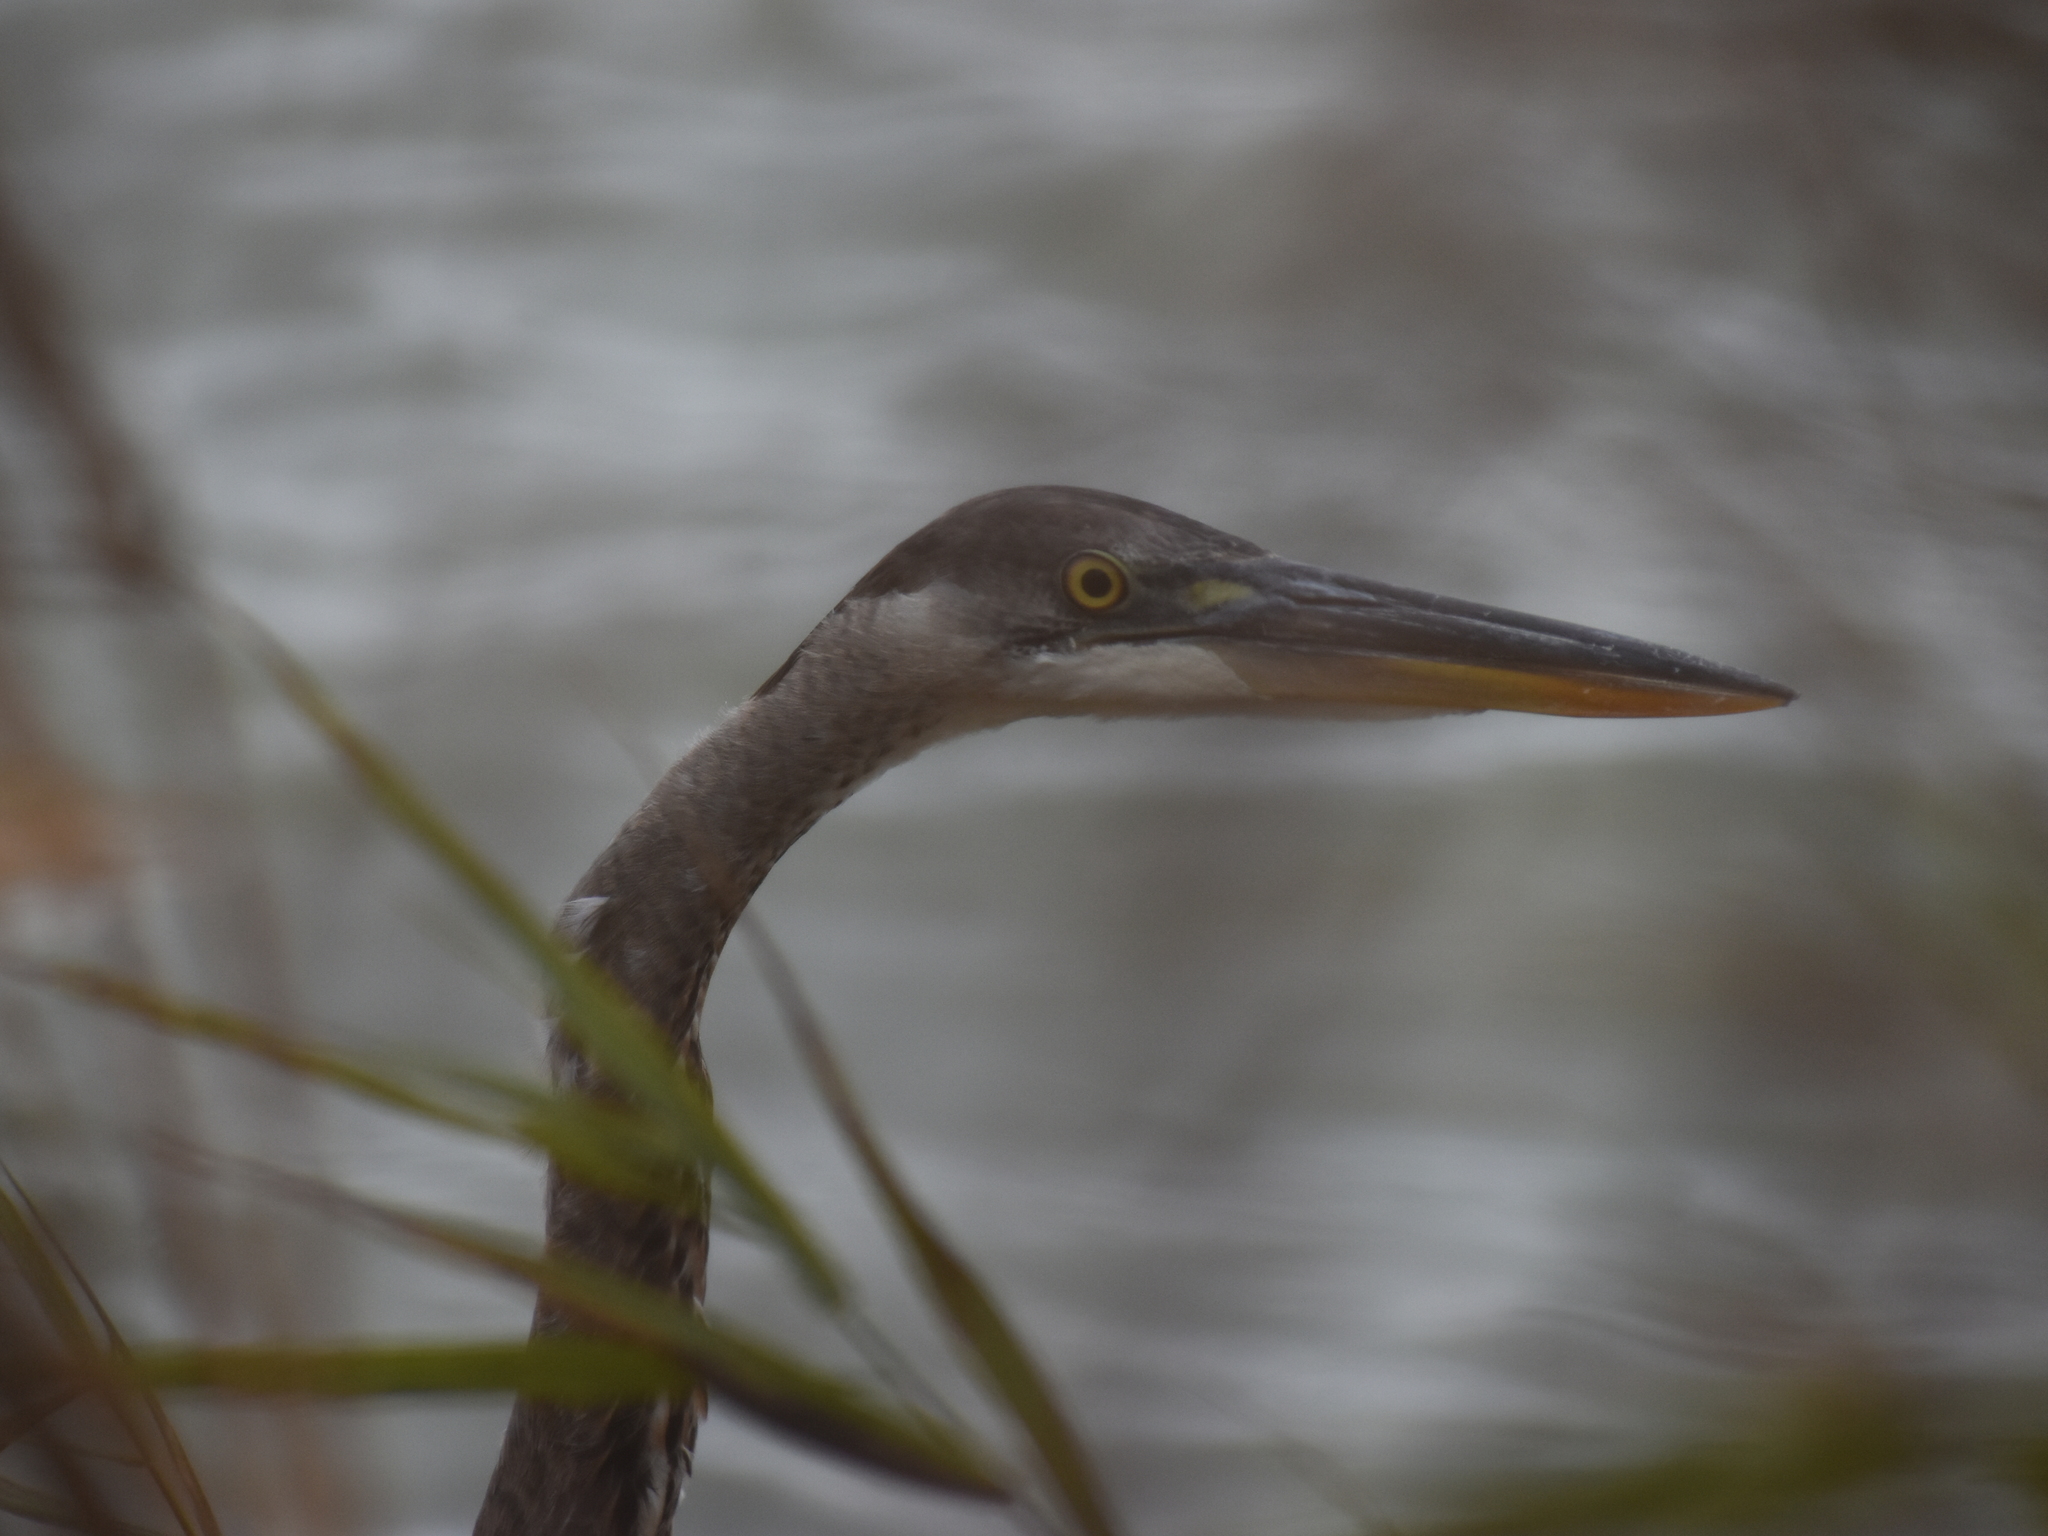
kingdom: Animalia
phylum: Chordata
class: Aves
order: Pelecaniformes
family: Ardeidae
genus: Ardea
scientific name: Ardea herodias
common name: Great blue heron
